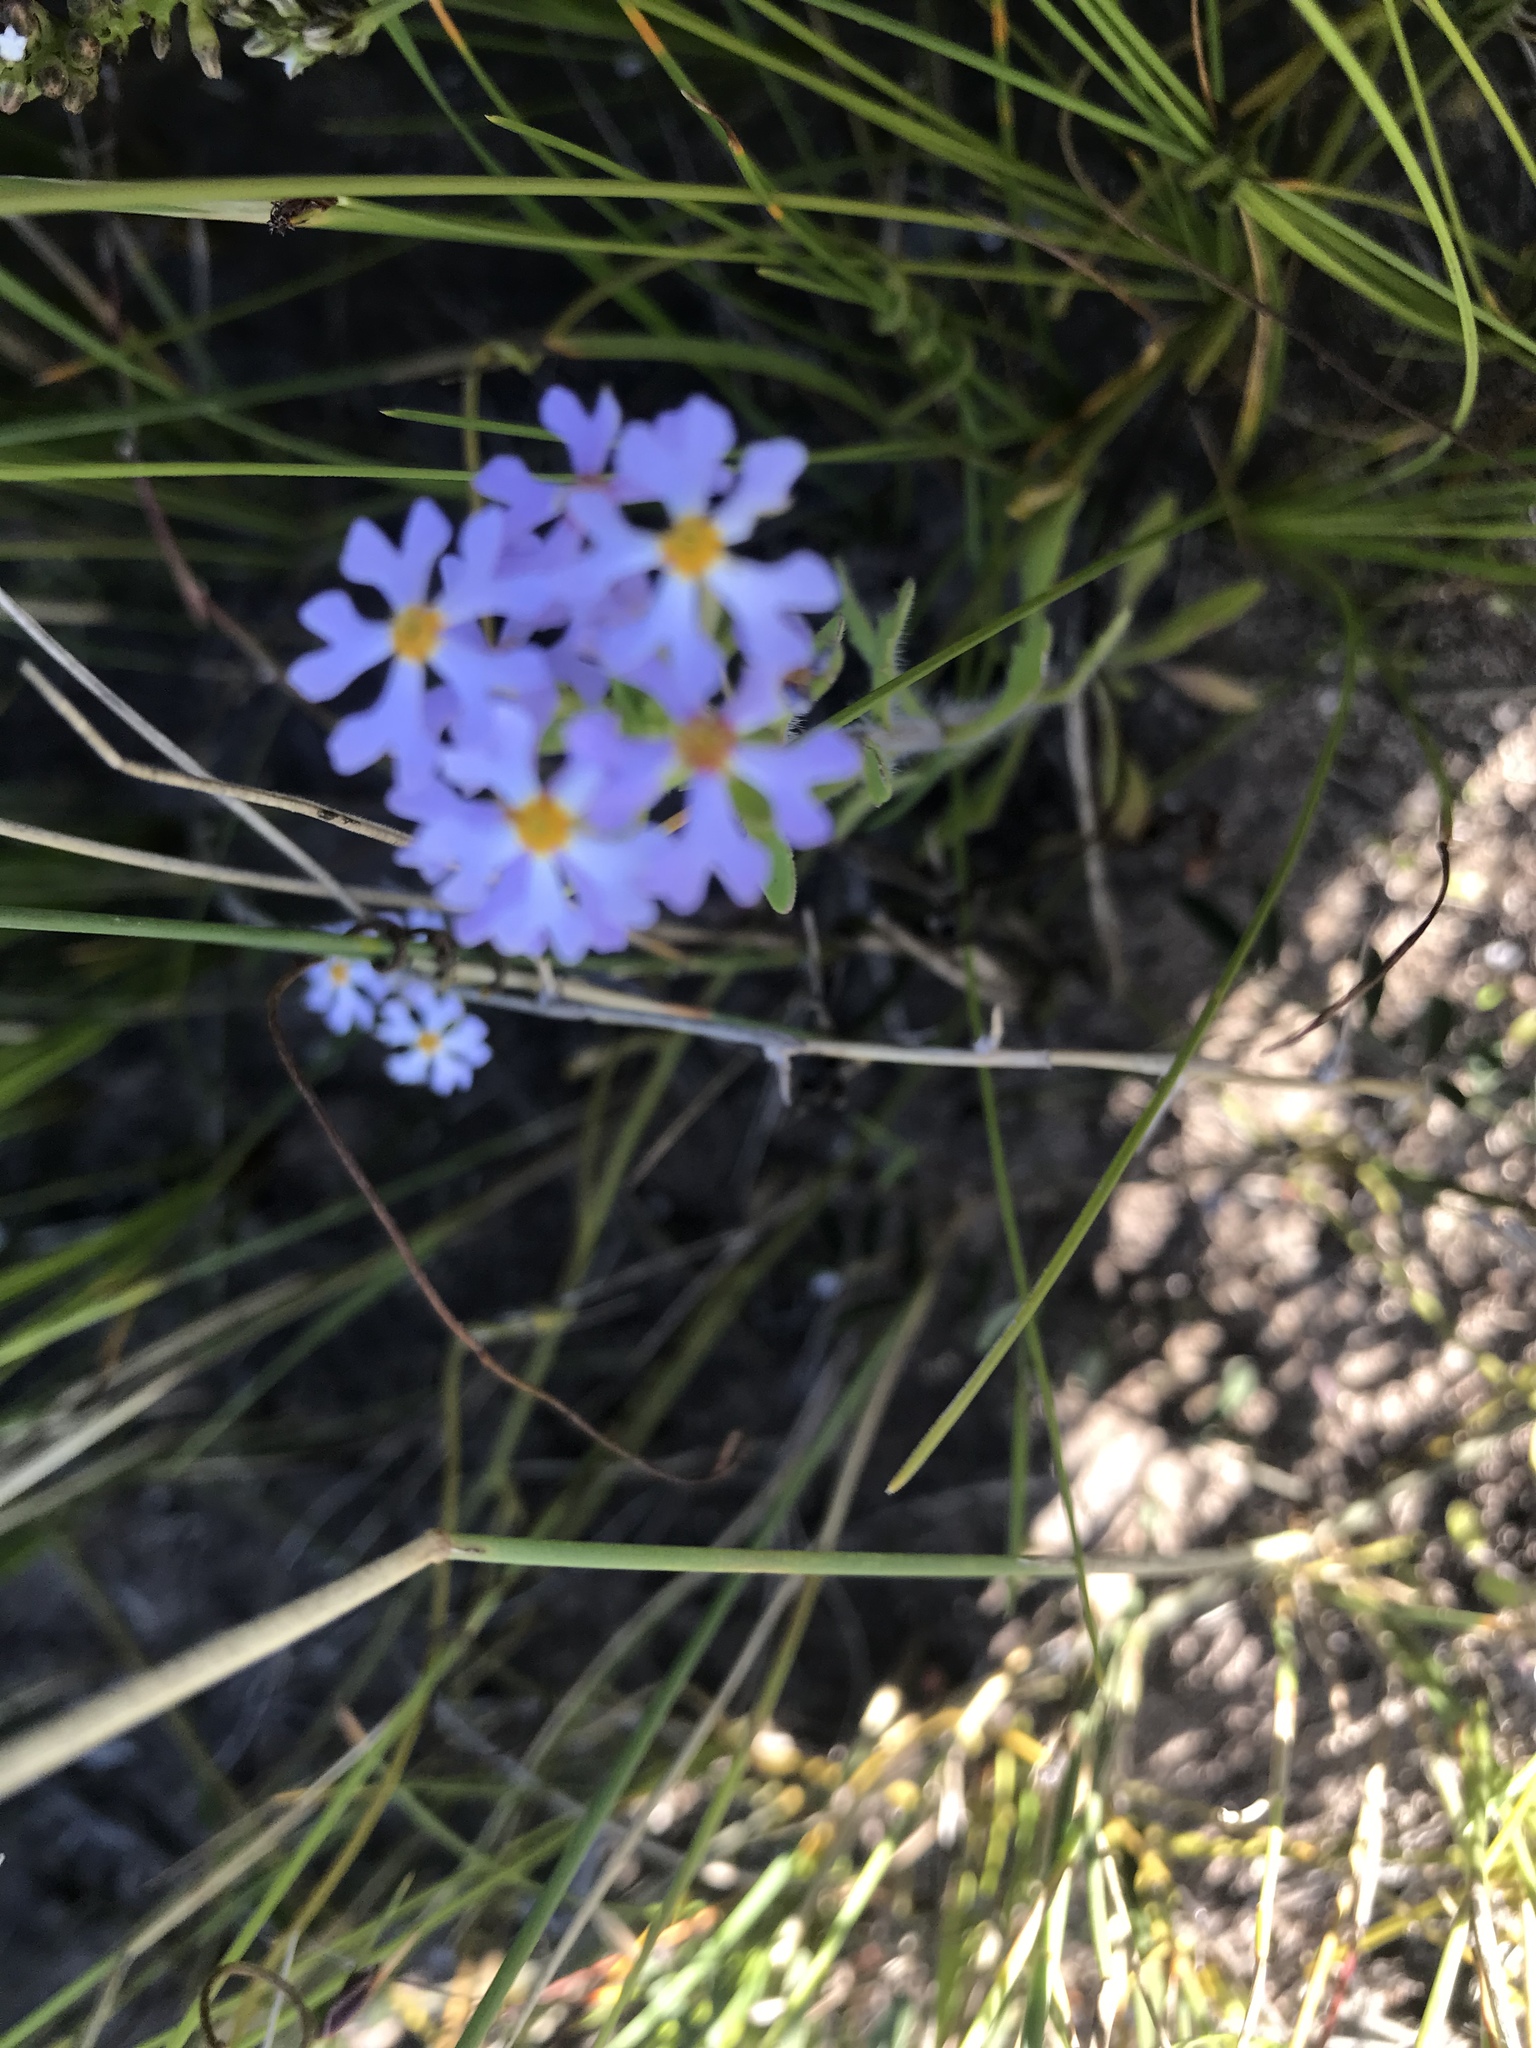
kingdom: Plantae
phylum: Tracheophyta
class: Magnoliopsida
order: Lamiales
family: Scrophulariaceae
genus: Zaluzianskya
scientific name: Zaluzianskya villosa
